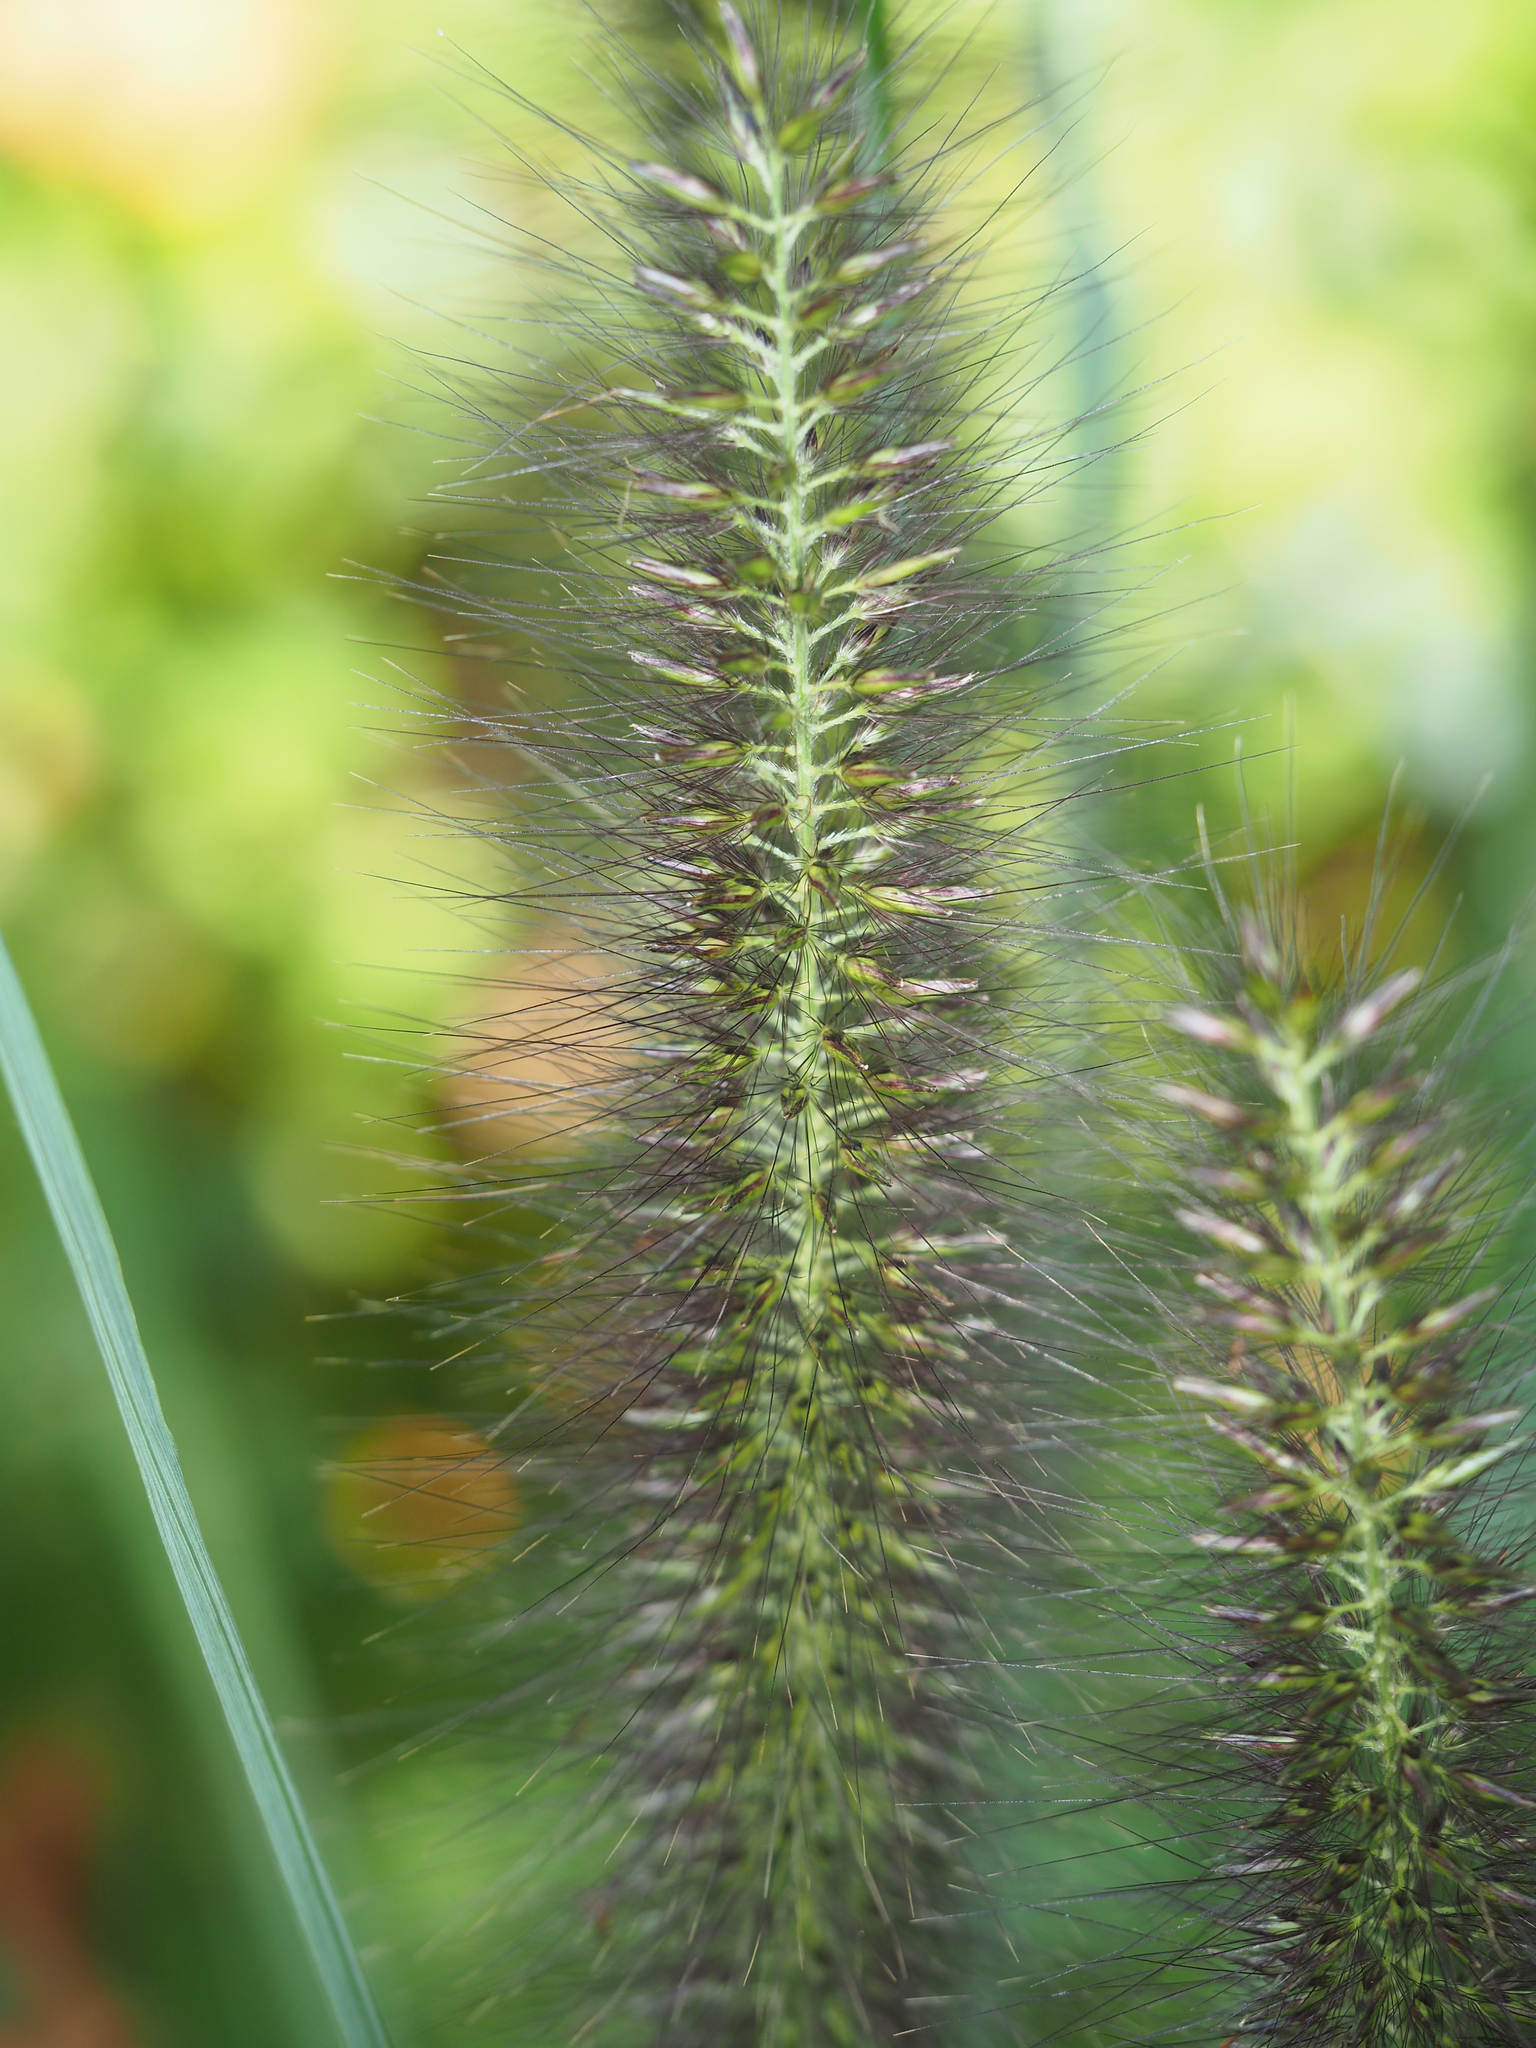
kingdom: Plantae
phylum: Tracheophyta
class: Liliopsida
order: Poales
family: Poaceae
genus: Cenchrus
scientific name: Cenchrus alopecuroides
